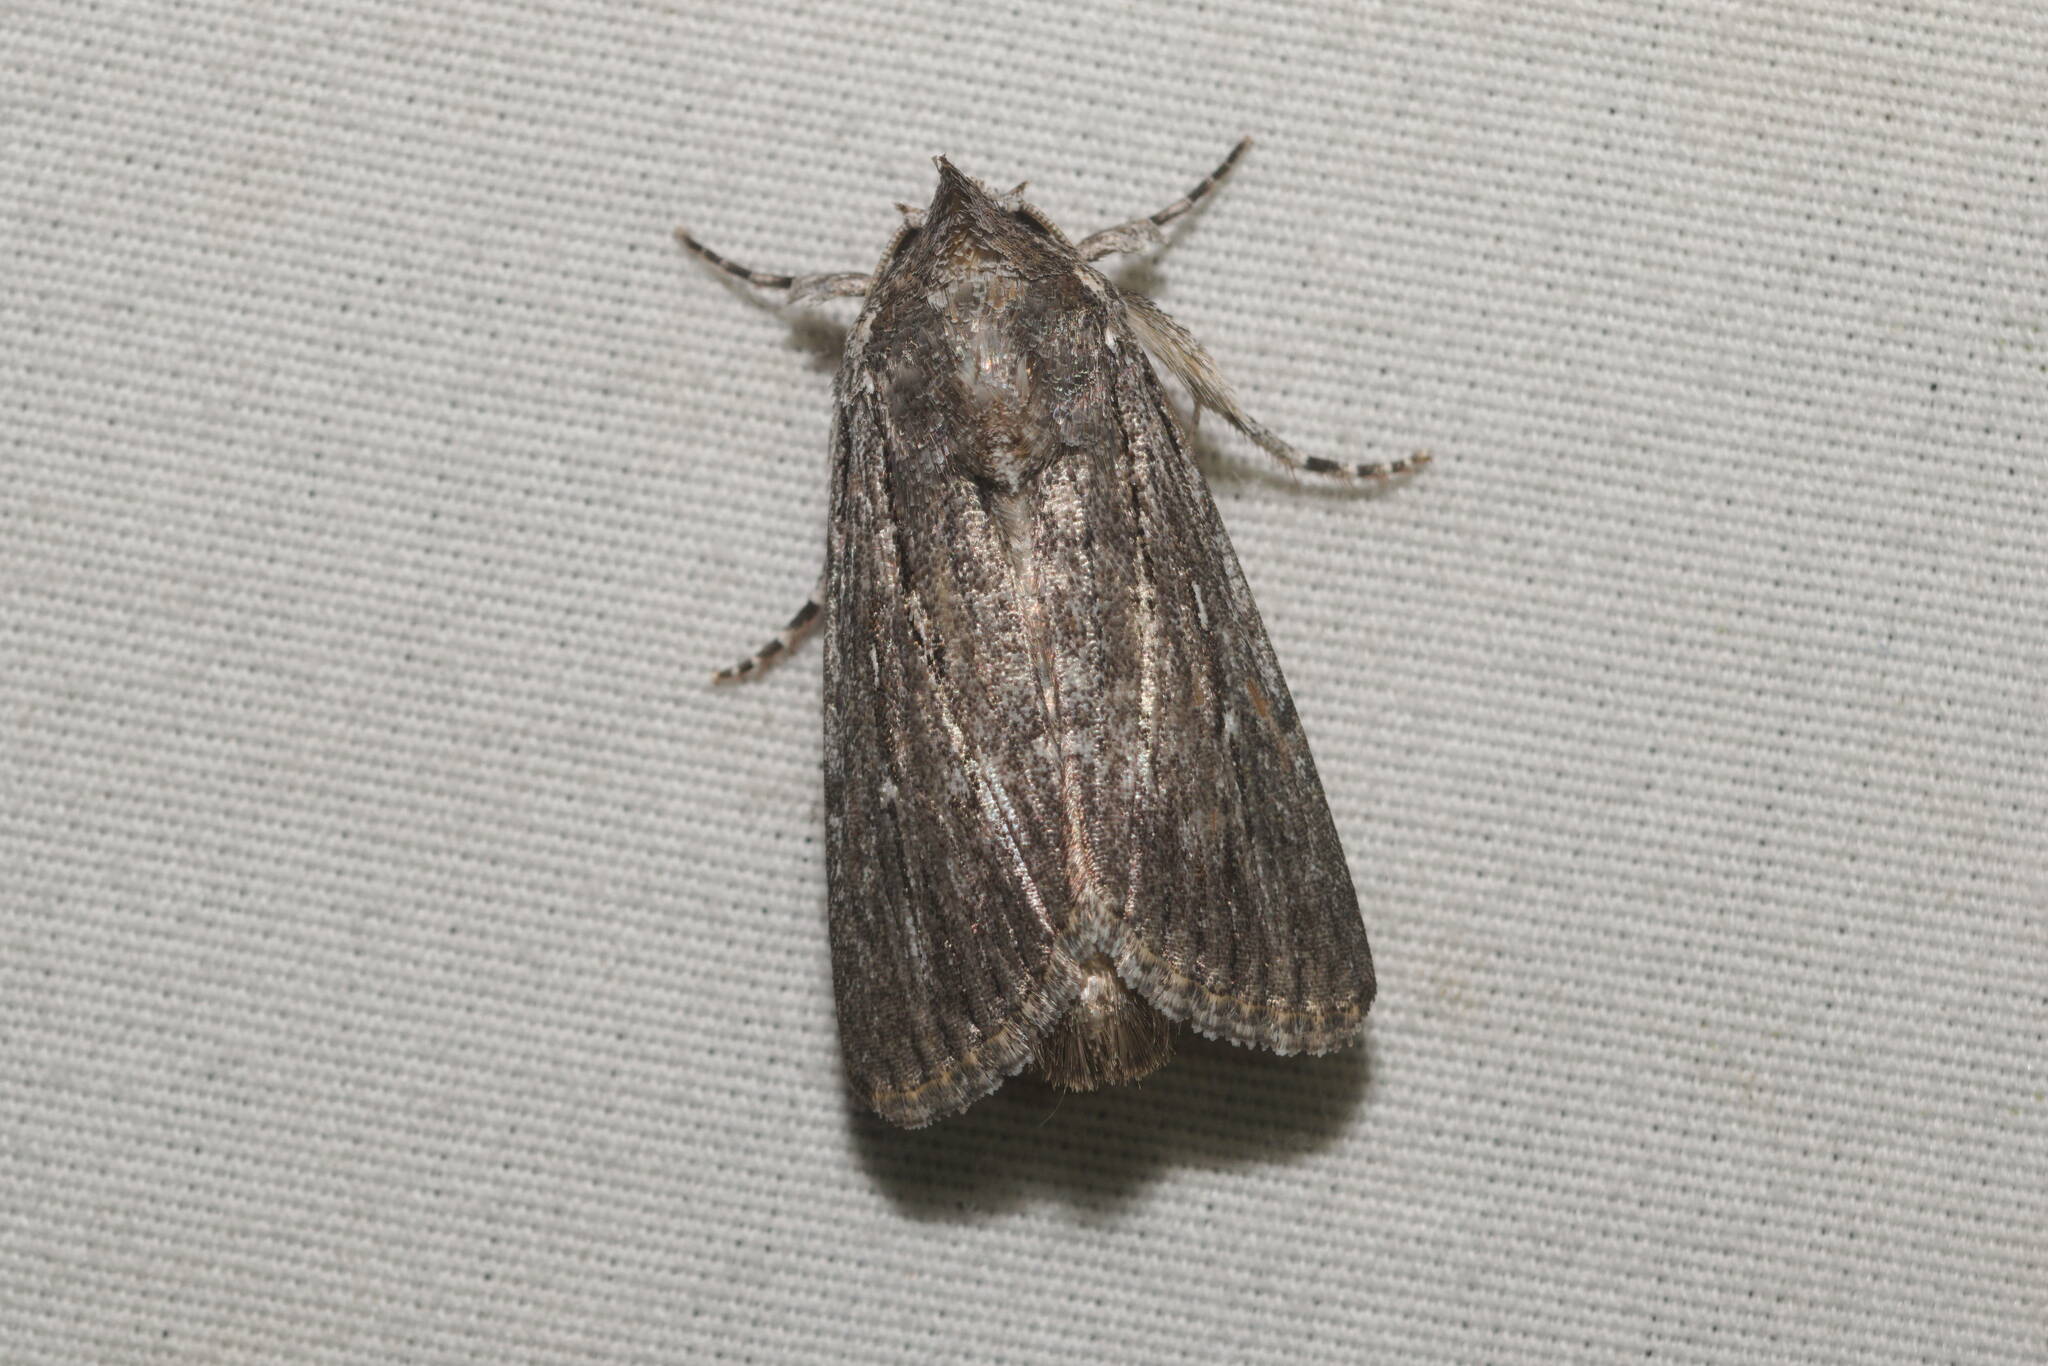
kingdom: Animalia
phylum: Arthropoda
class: Insecta
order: Lepidoptera
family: Noctuidae
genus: Neogalea
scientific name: Neogalea sunia
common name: Lantana stick caterpillar
